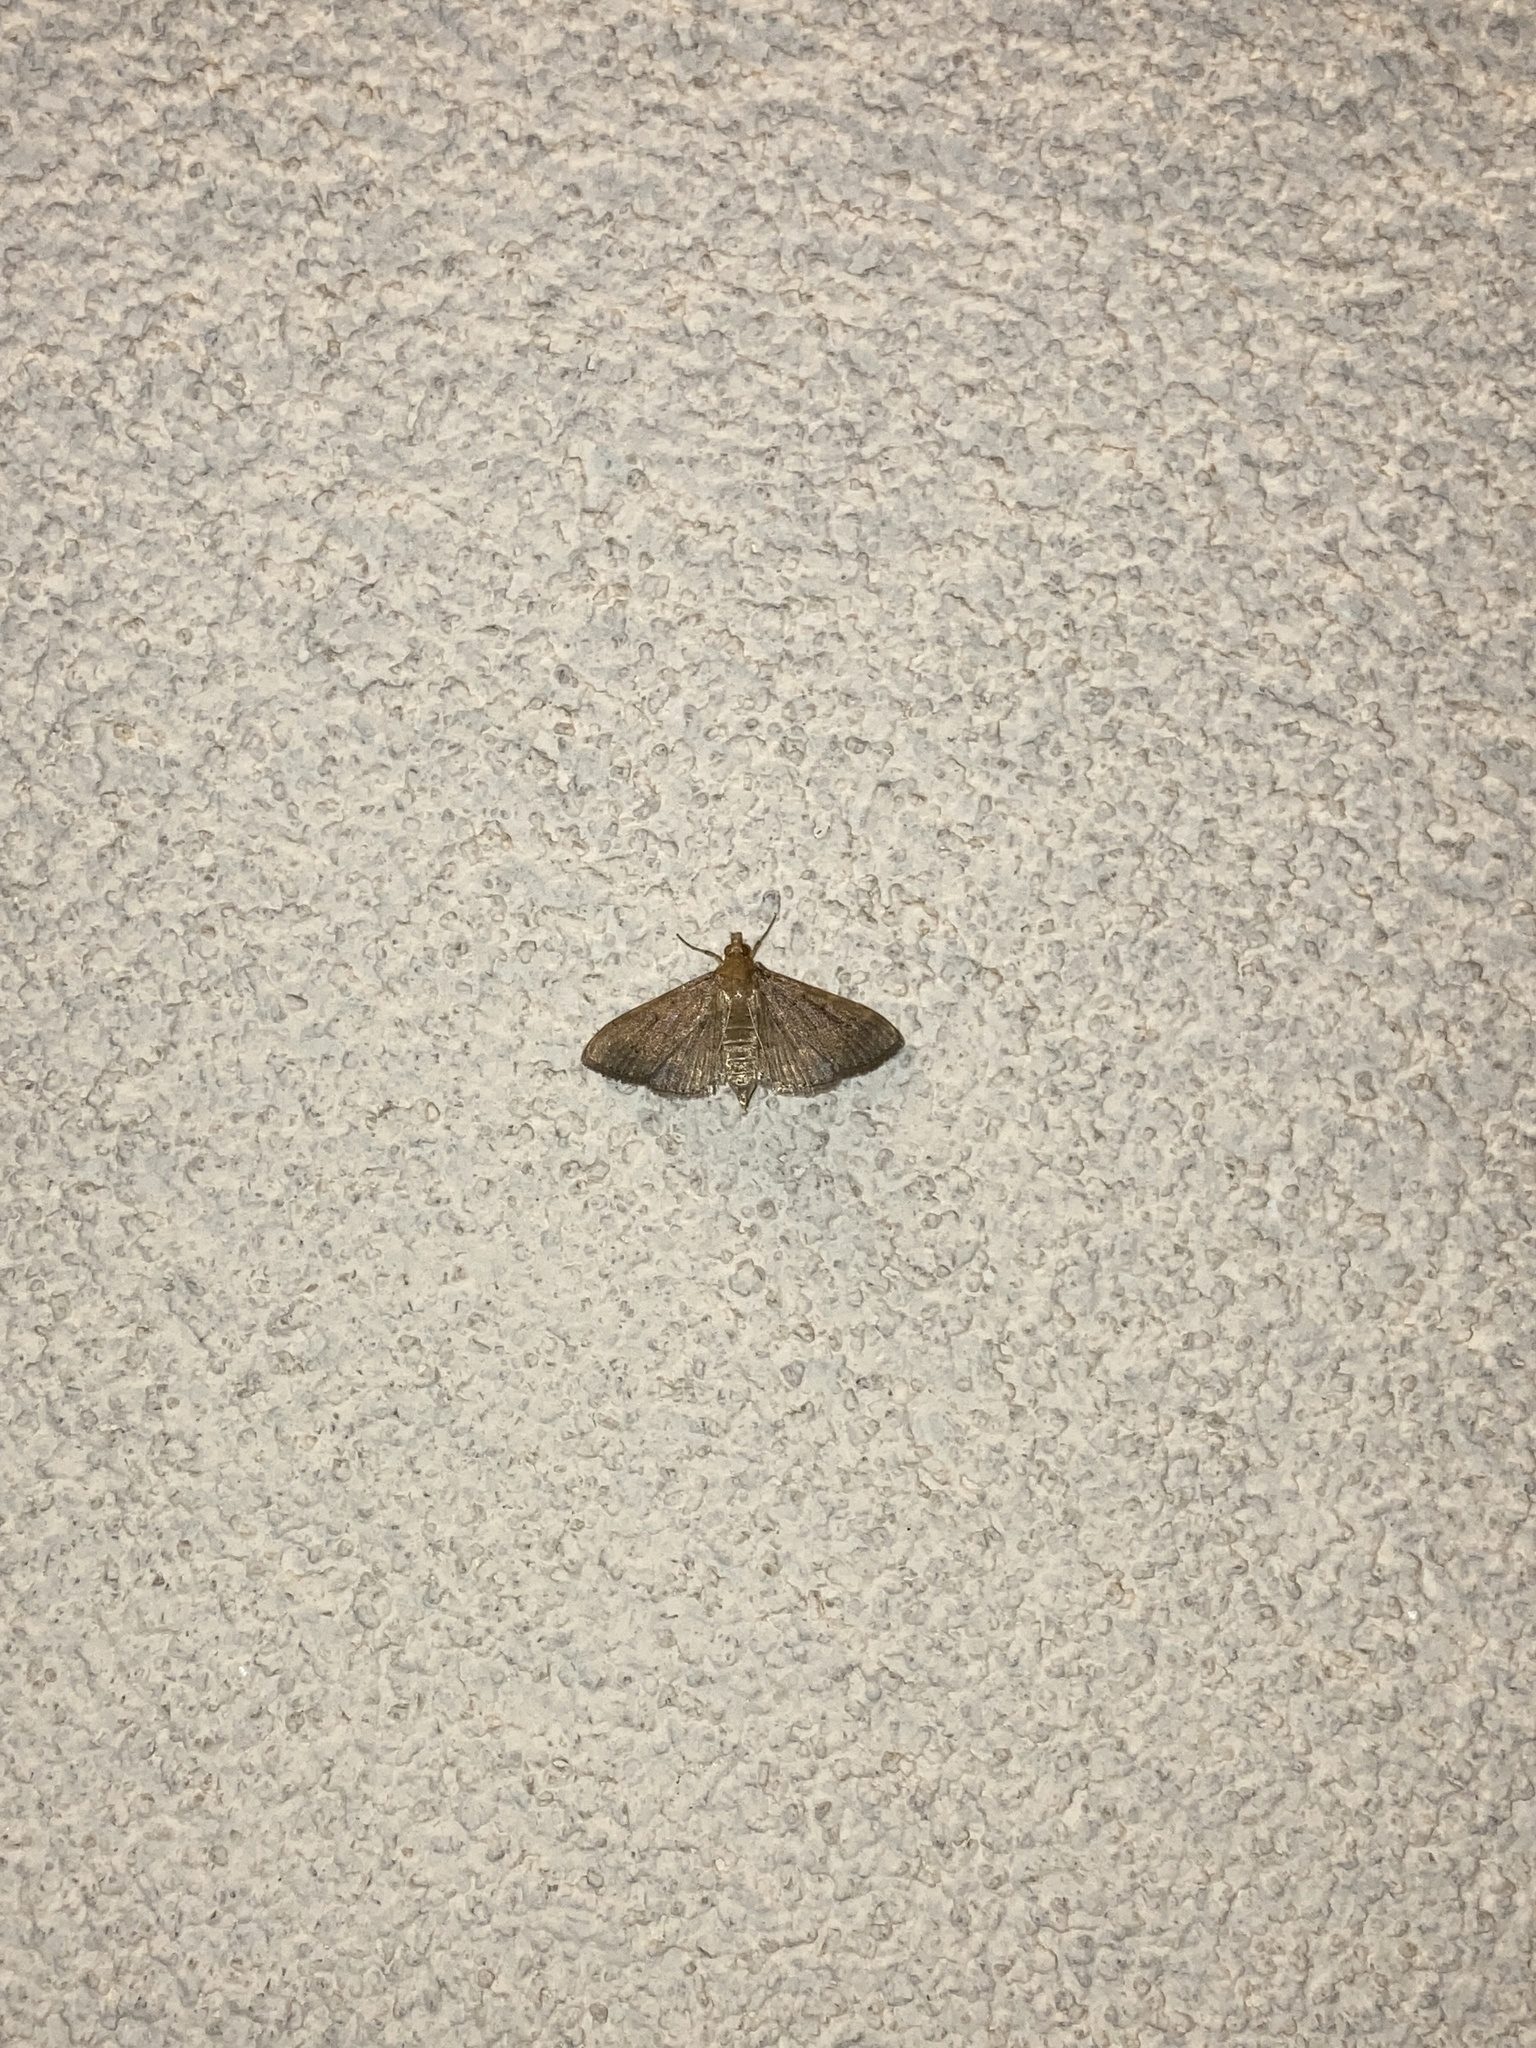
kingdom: Animalia
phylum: Arthropoda
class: Insecta
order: Lepidoptera
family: Crambidae
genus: Herpetogramma
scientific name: Herpetogramma licarsisalis
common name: Grass webworm
